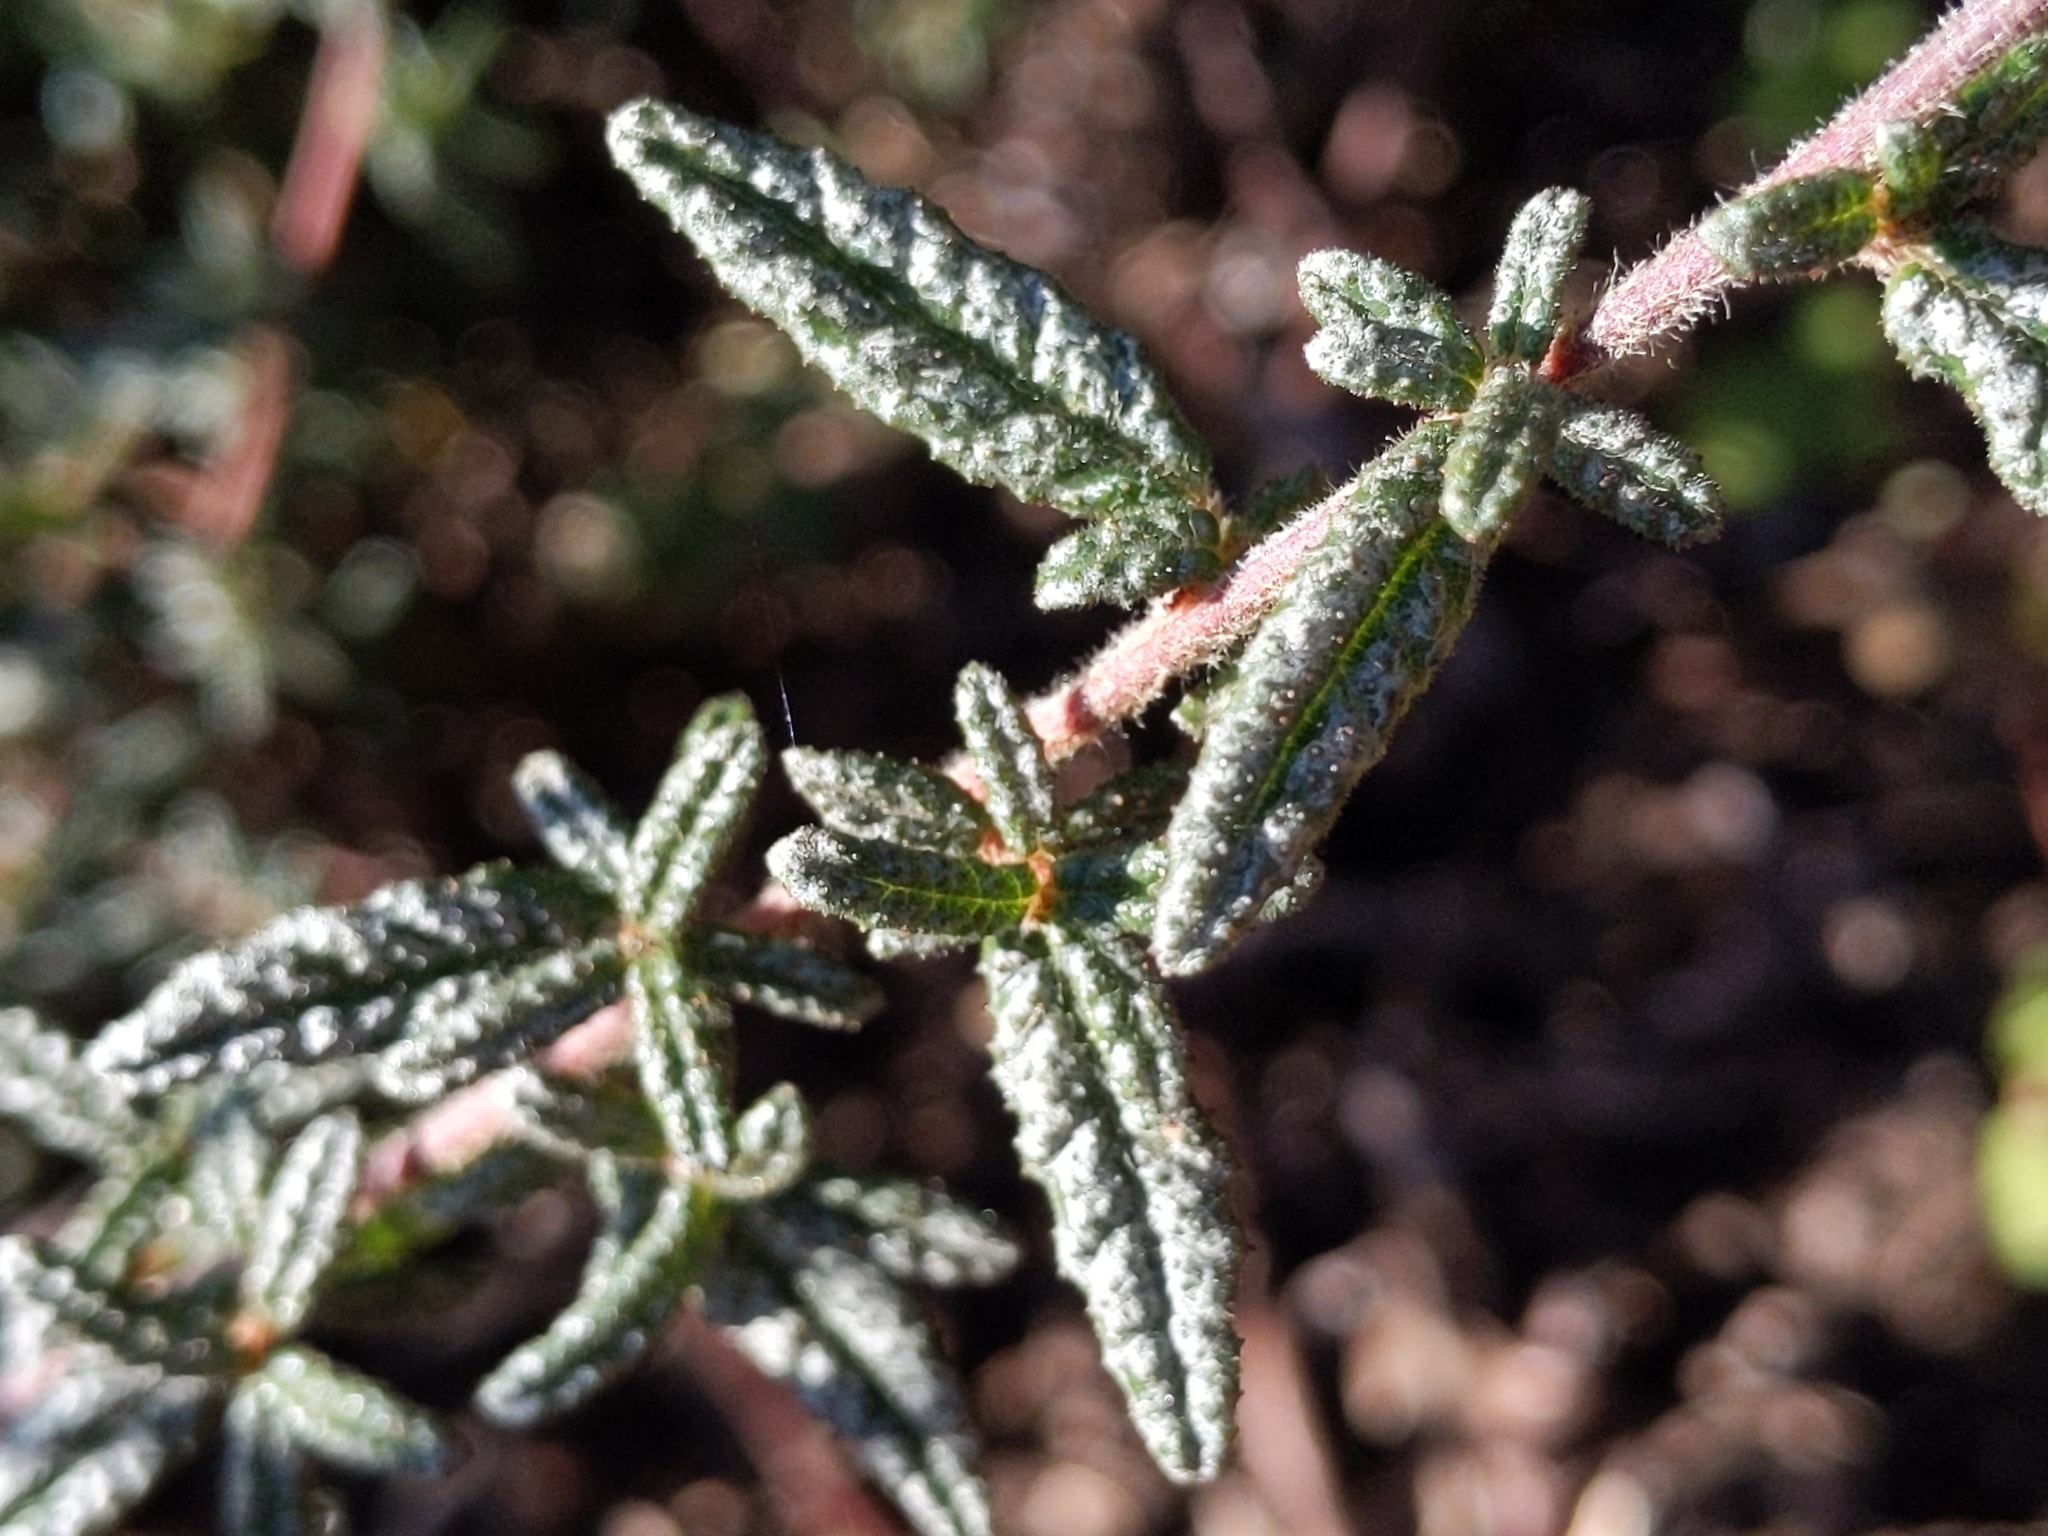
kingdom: Plantae
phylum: Tracheophyta
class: Magnoliopsida
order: Rosales
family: Rhamnaceae
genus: Ceanothus
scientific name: Ceanothus papillosus
